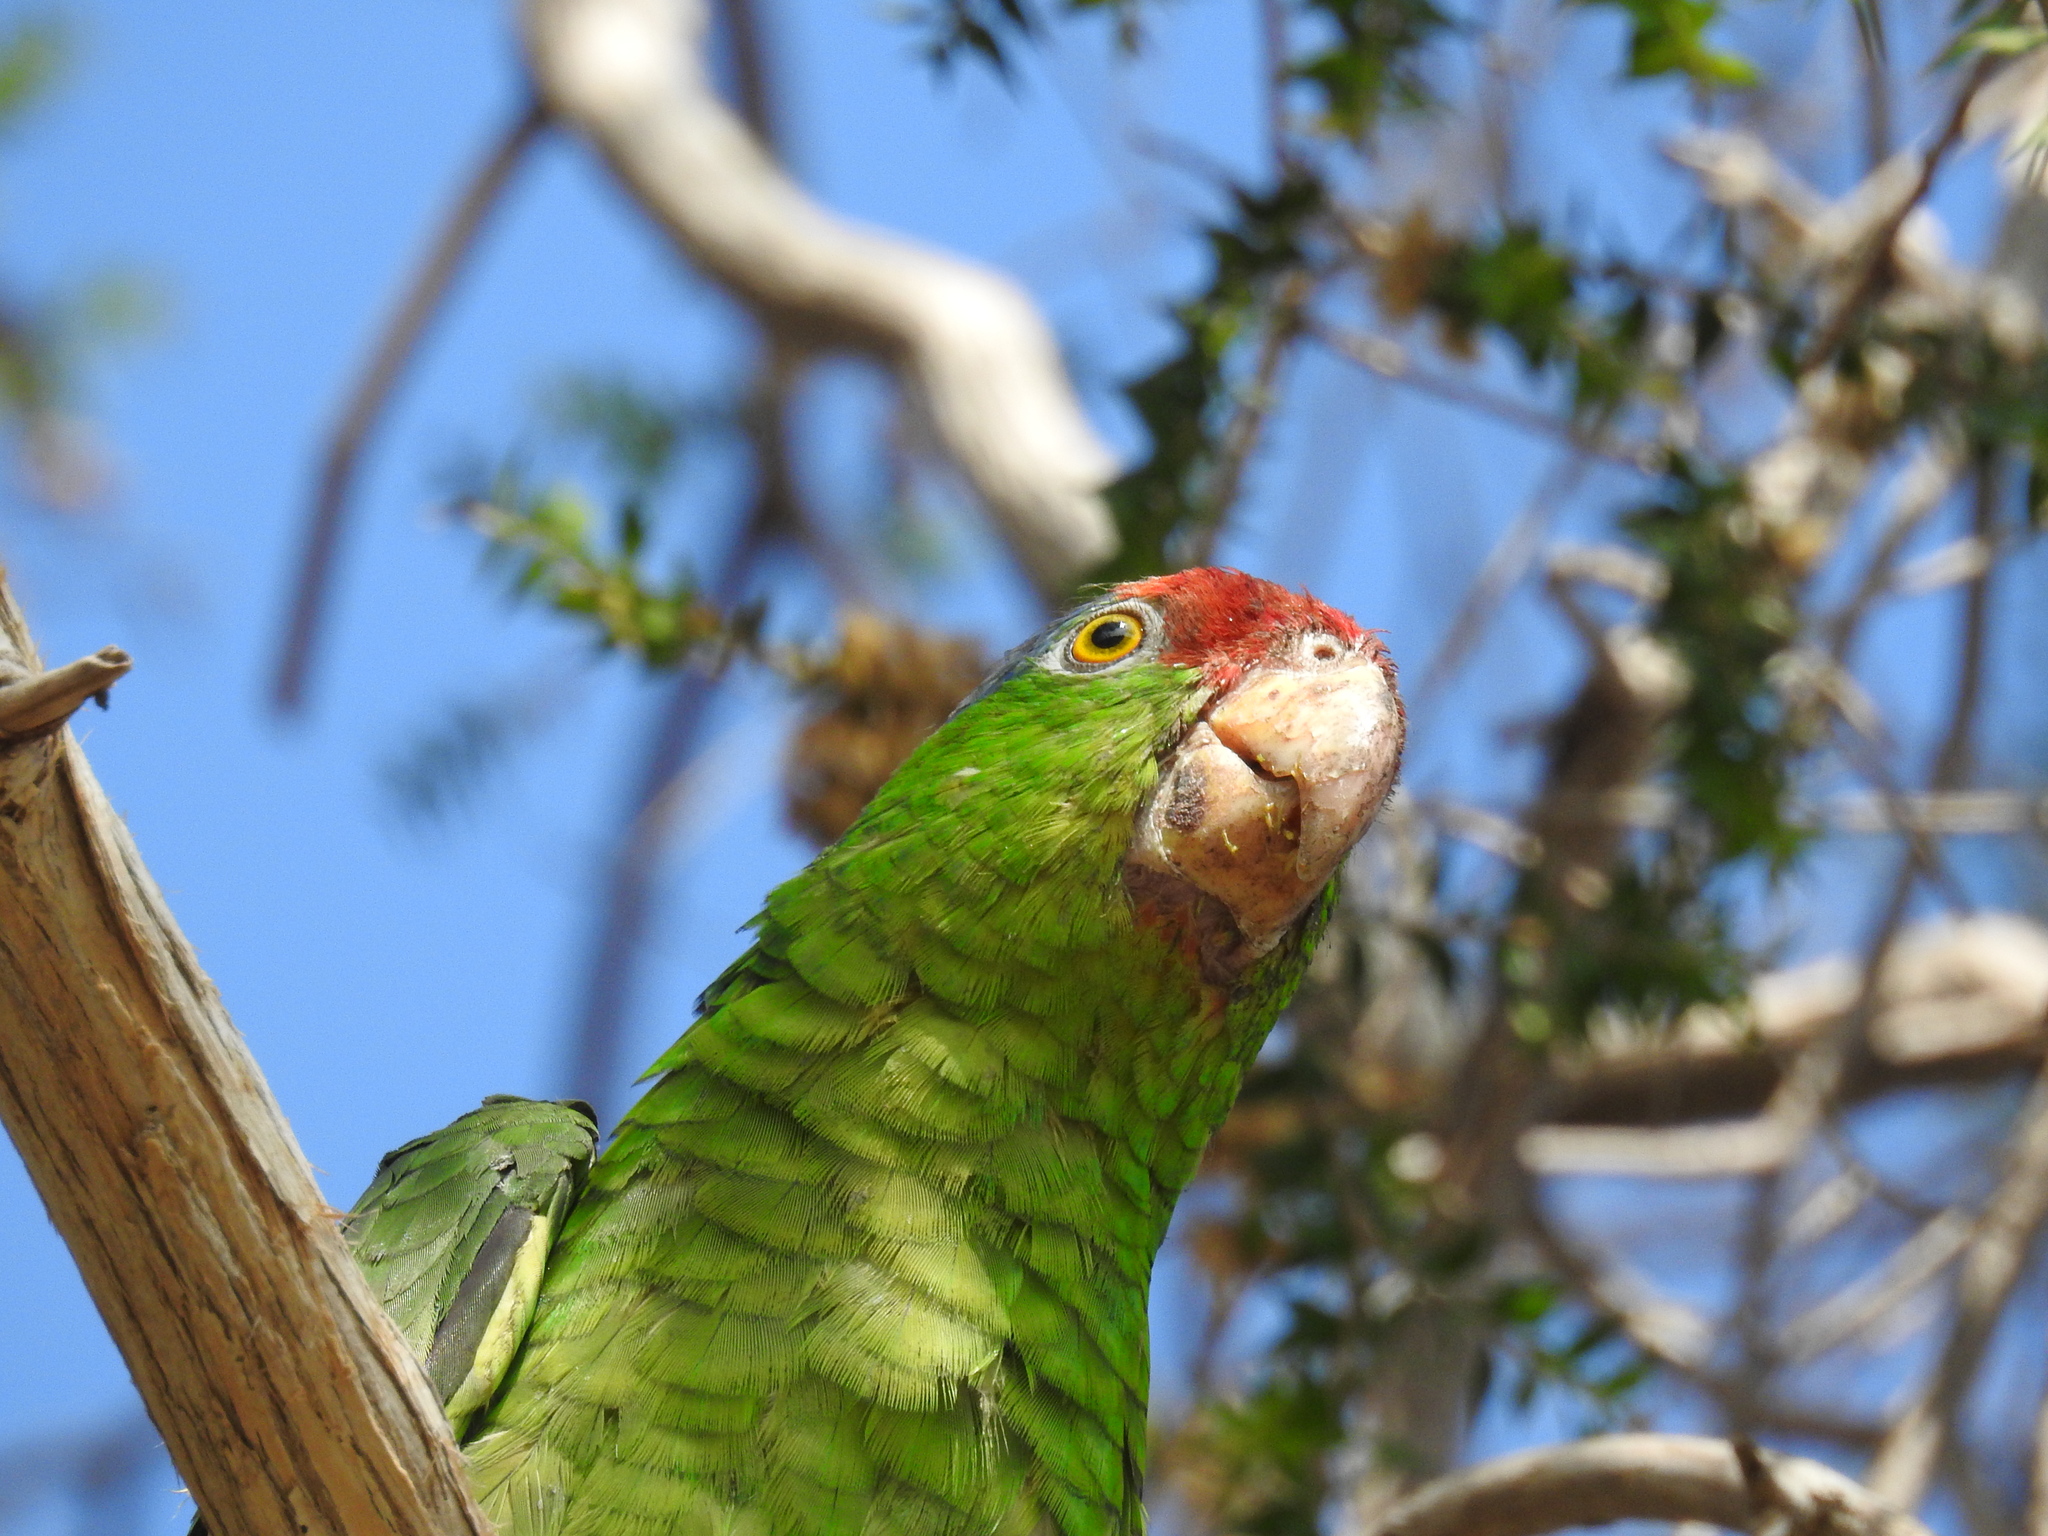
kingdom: Animalia
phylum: Chordata
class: Aves
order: Psittaciformes
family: Psittacidae
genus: Amazona
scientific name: Amazona viridigenalis
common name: Red-crowned amazon
